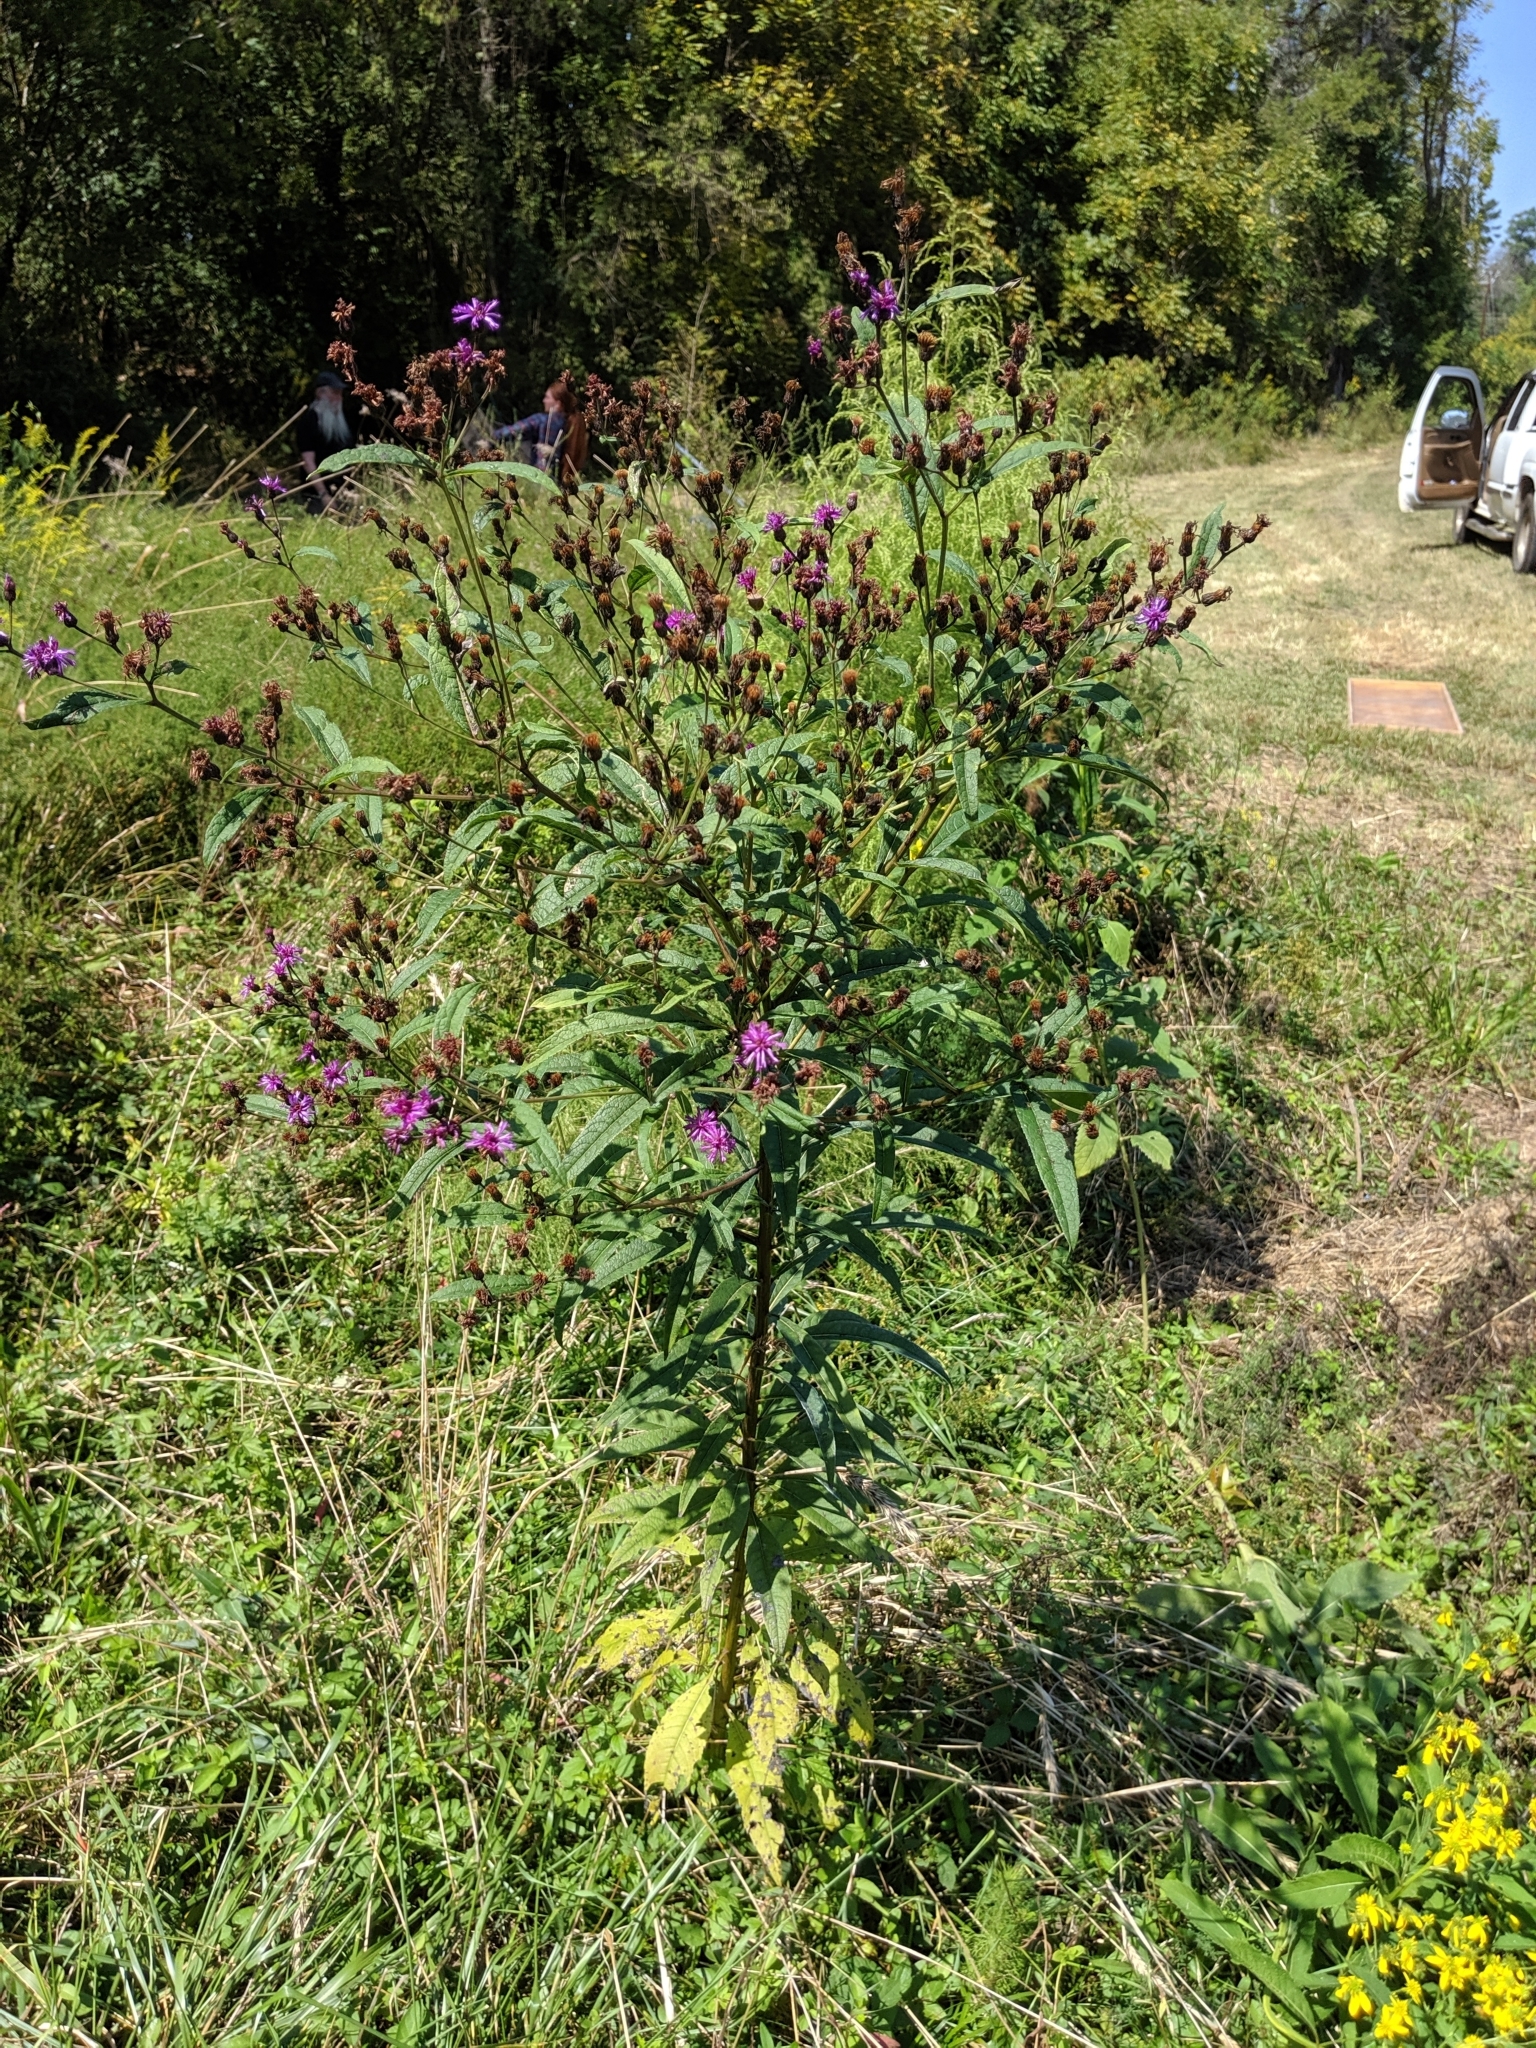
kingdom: Plantae
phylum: Tracheophyta
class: Magnoliopsida
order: Asterales
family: Asteraceae
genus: Vernonia
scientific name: Vernonia noveboracensis
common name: New york ironweed
